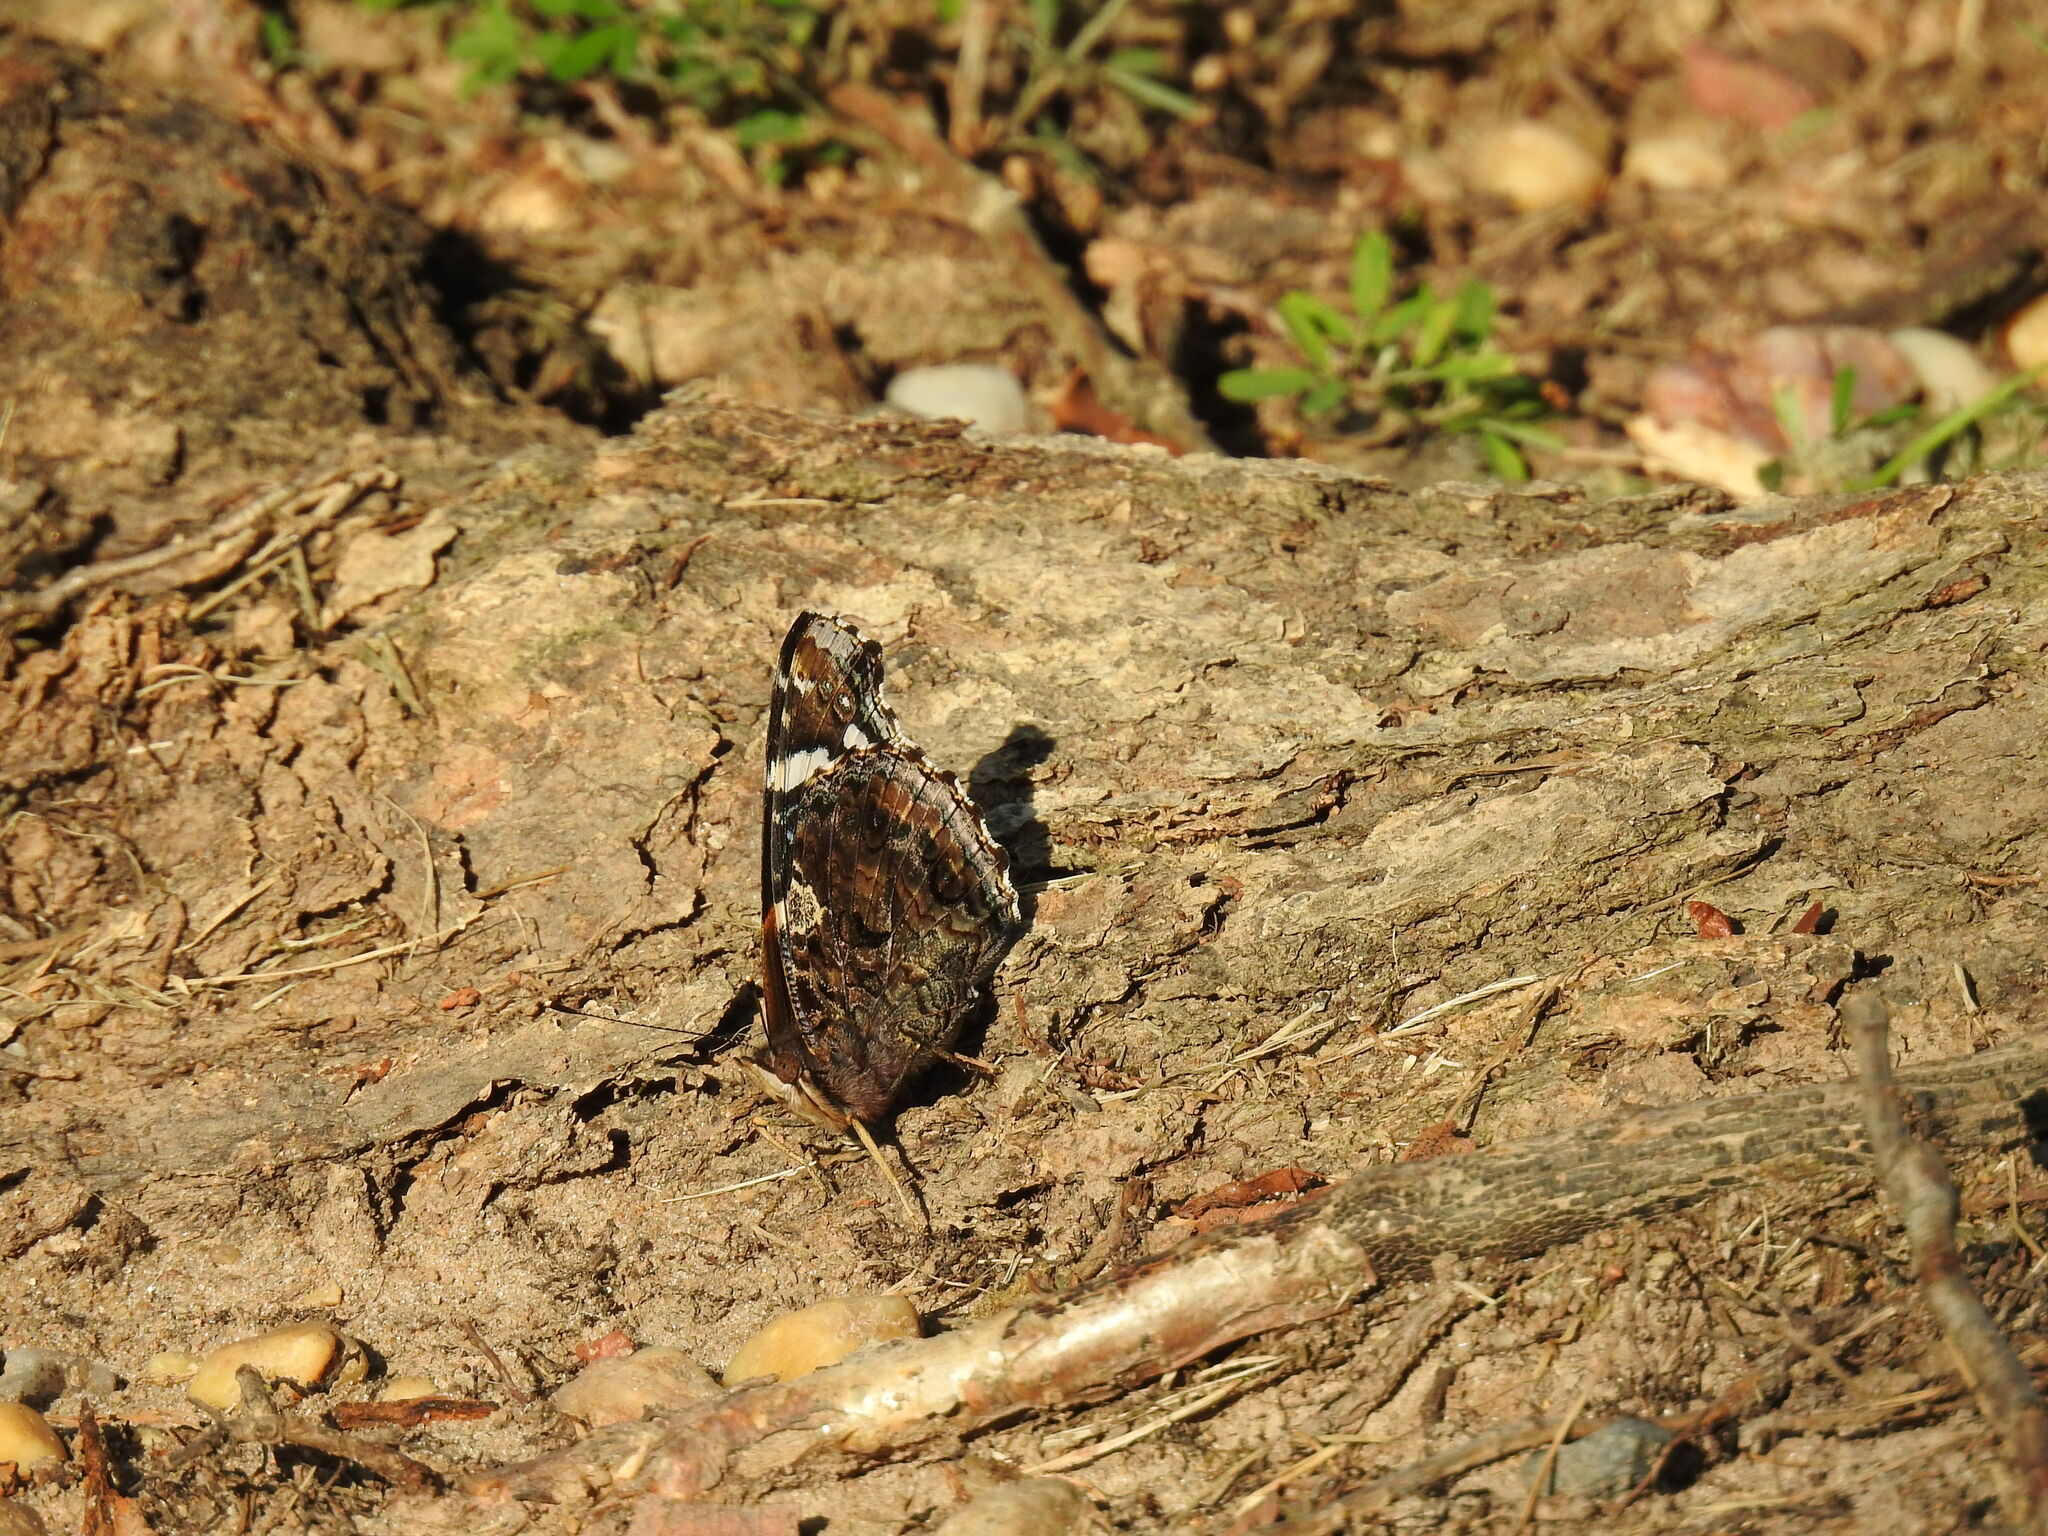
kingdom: Animalia
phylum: Arthropoda
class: Insecta
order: Lepidoptera
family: Nymphalidae
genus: Vanessa
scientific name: Vanessa atalanta
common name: Red admiral
